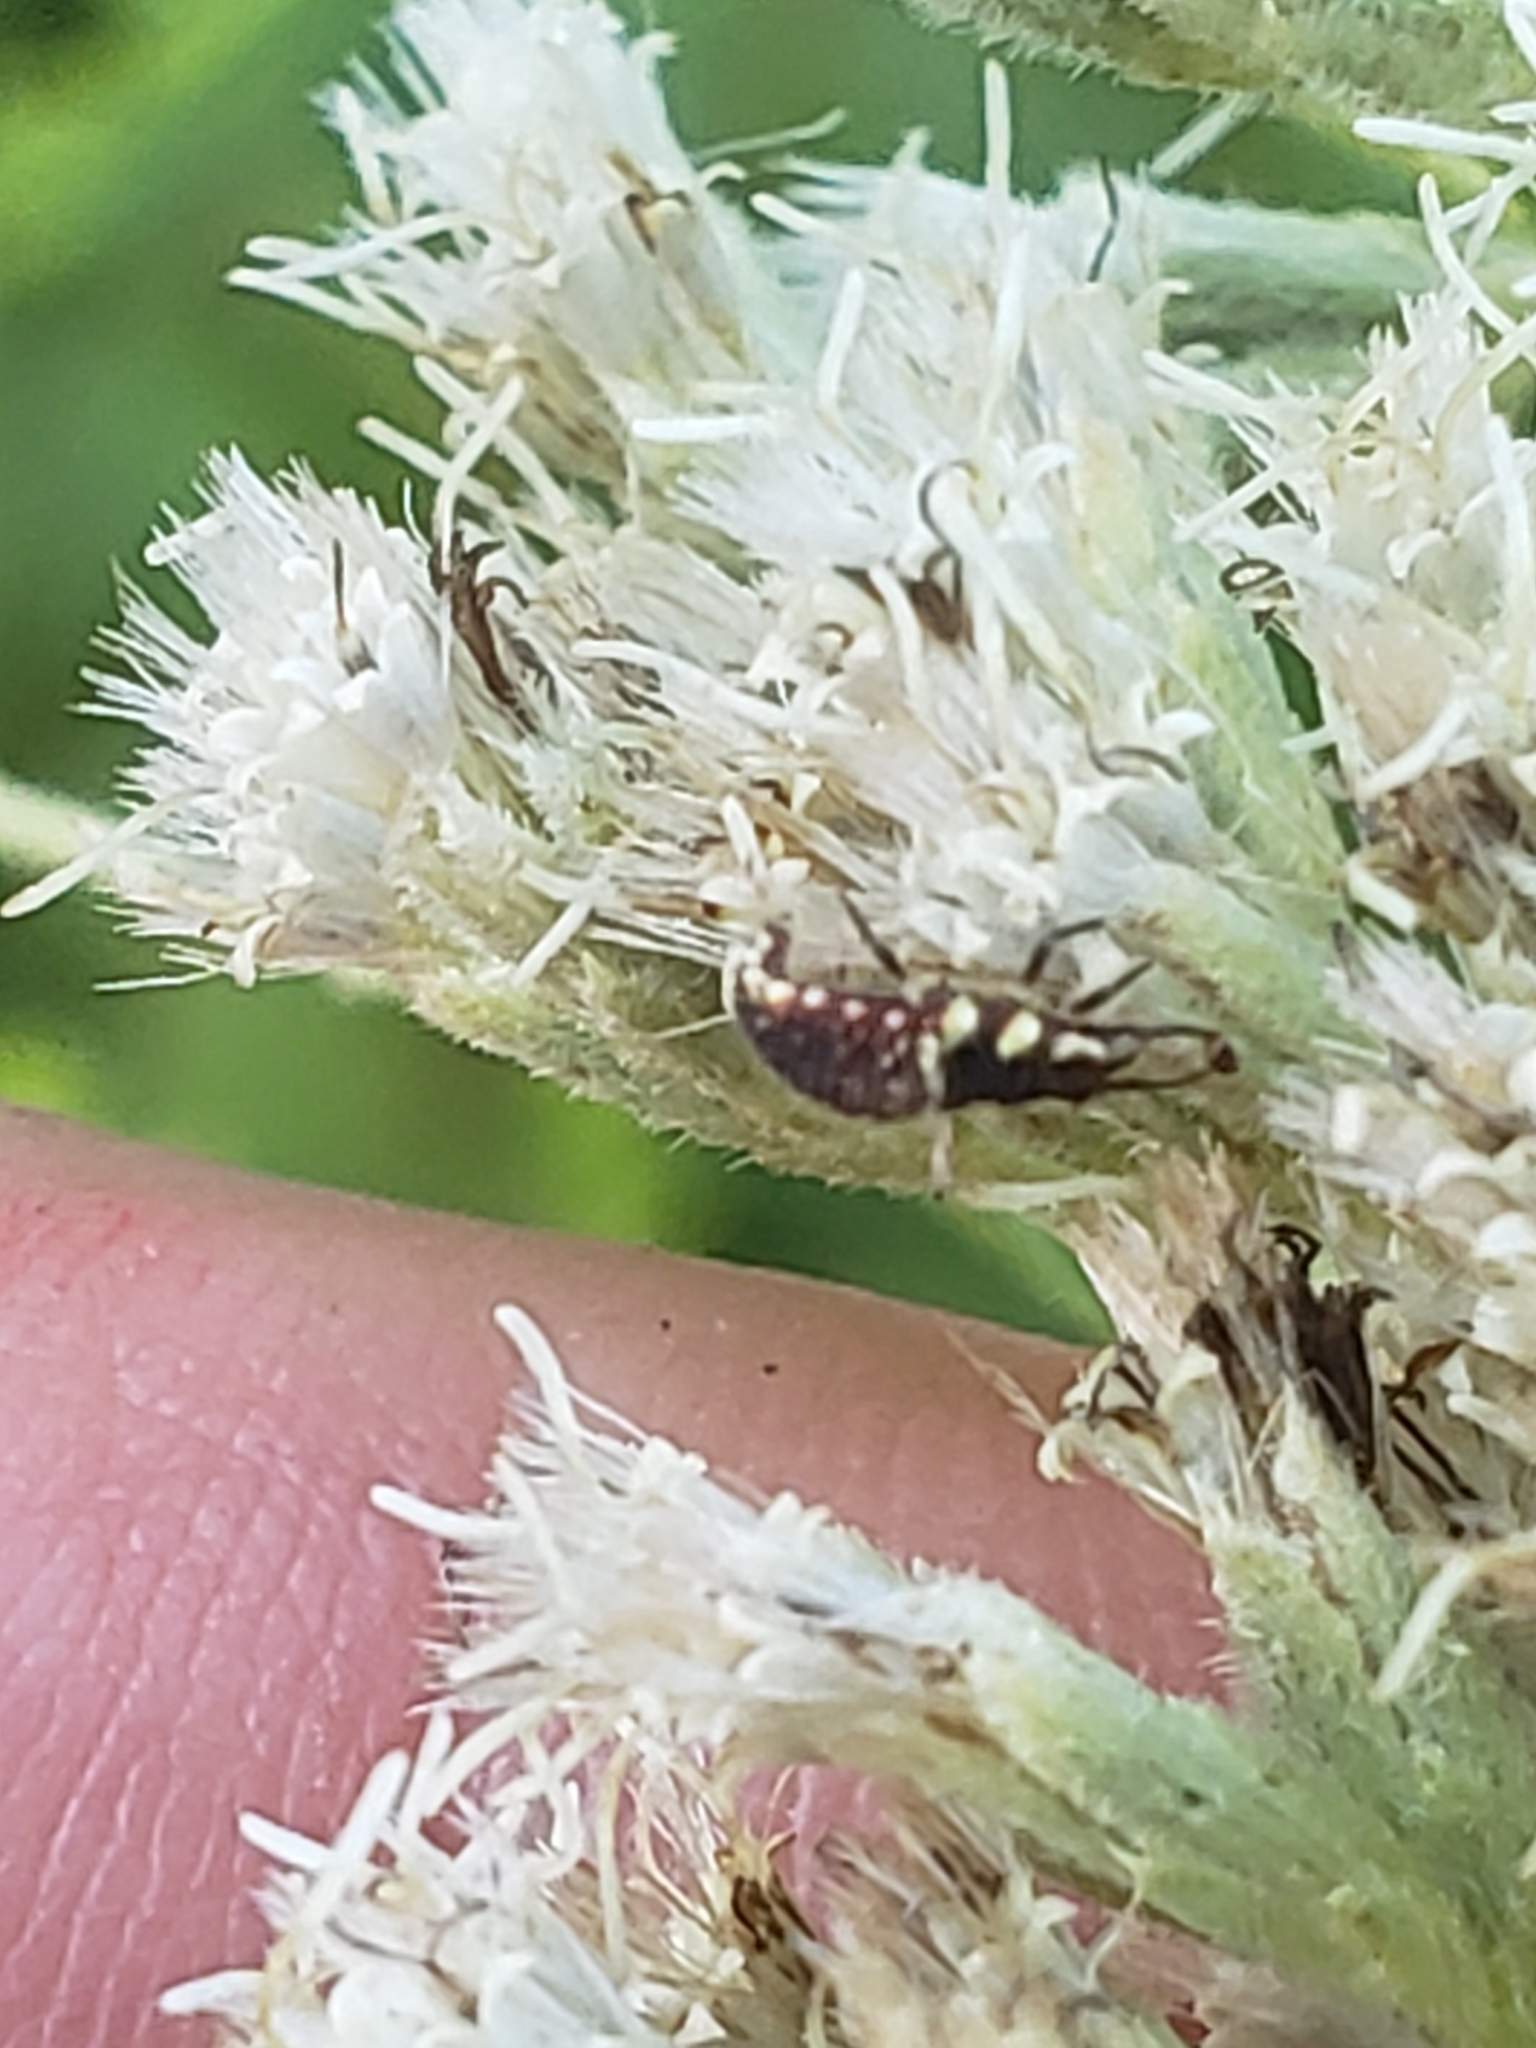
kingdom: Animalia
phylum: Arthropoda
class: Insecta
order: Neuroptera
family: Chrysopidae
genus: Chrysoperla
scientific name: Chrysoperla rufilabris
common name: Red-lipped green lacewing
